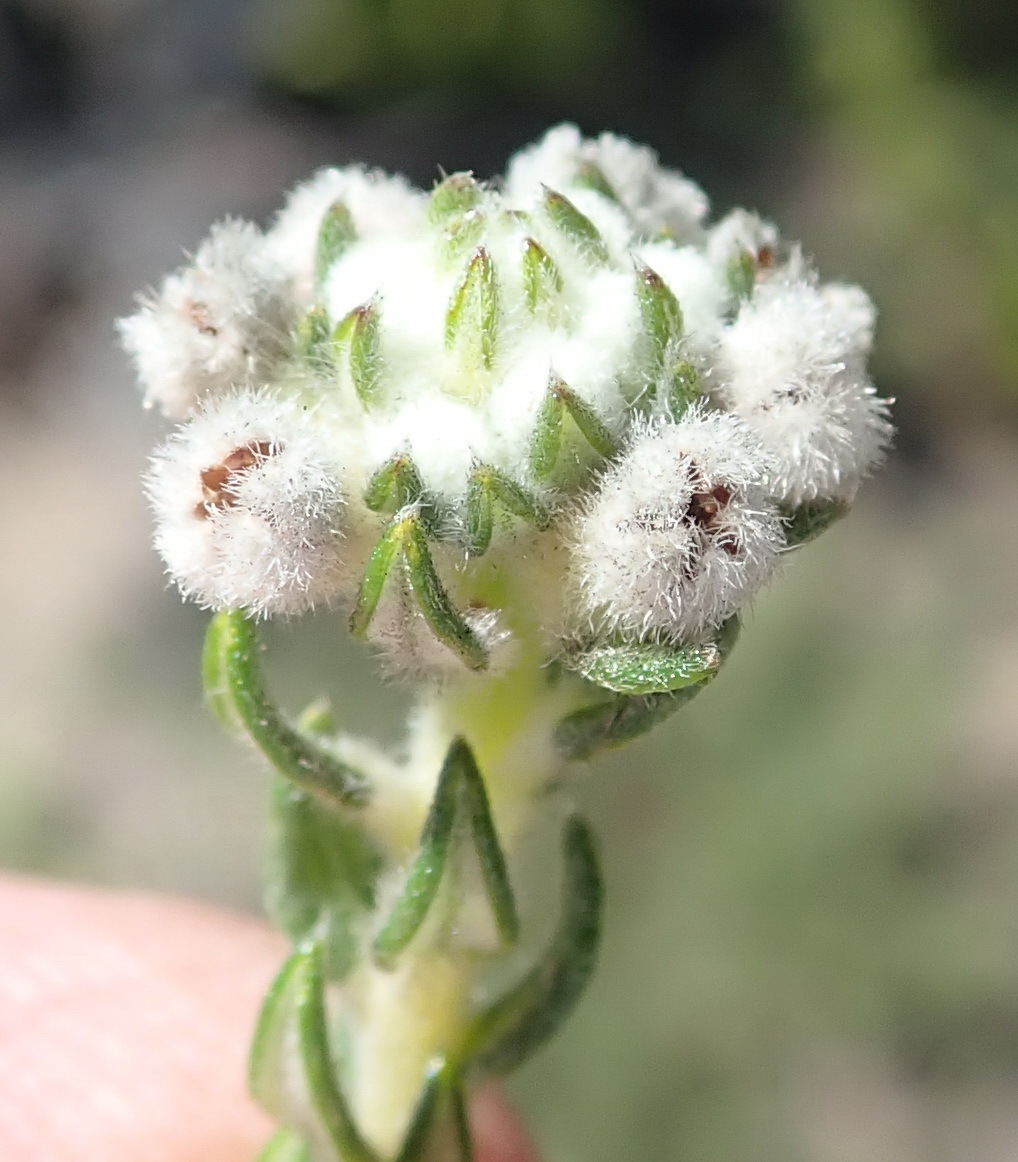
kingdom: Plantae
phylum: Tracheophyta
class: Magnoliopsida
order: Rosales
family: Rhamnaceae
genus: Phylica
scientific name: Phylica purpurea
